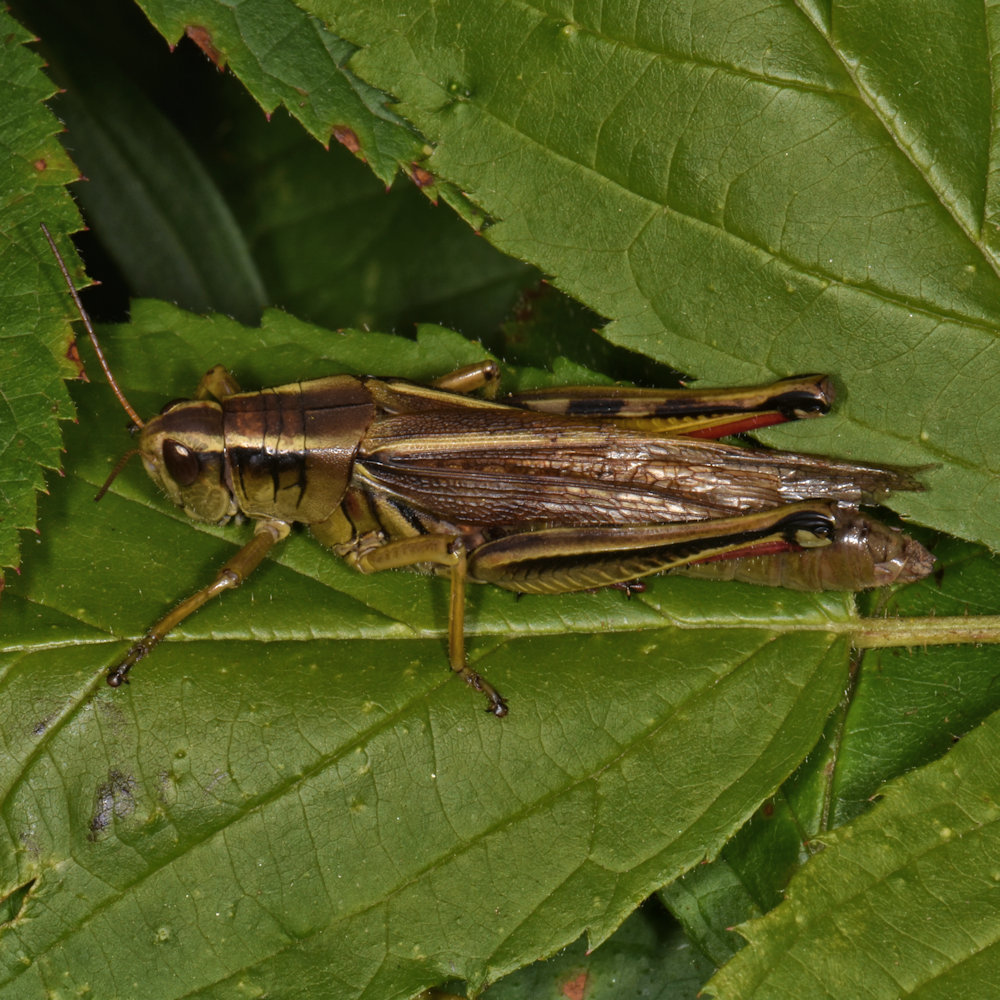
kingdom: Animalia
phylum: Arthropoda
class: Insecta
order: Orthoptera
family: Acrididae
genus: Melanoplus
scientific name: Melanoplus bivittatus
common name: Two-striped grasshopper
